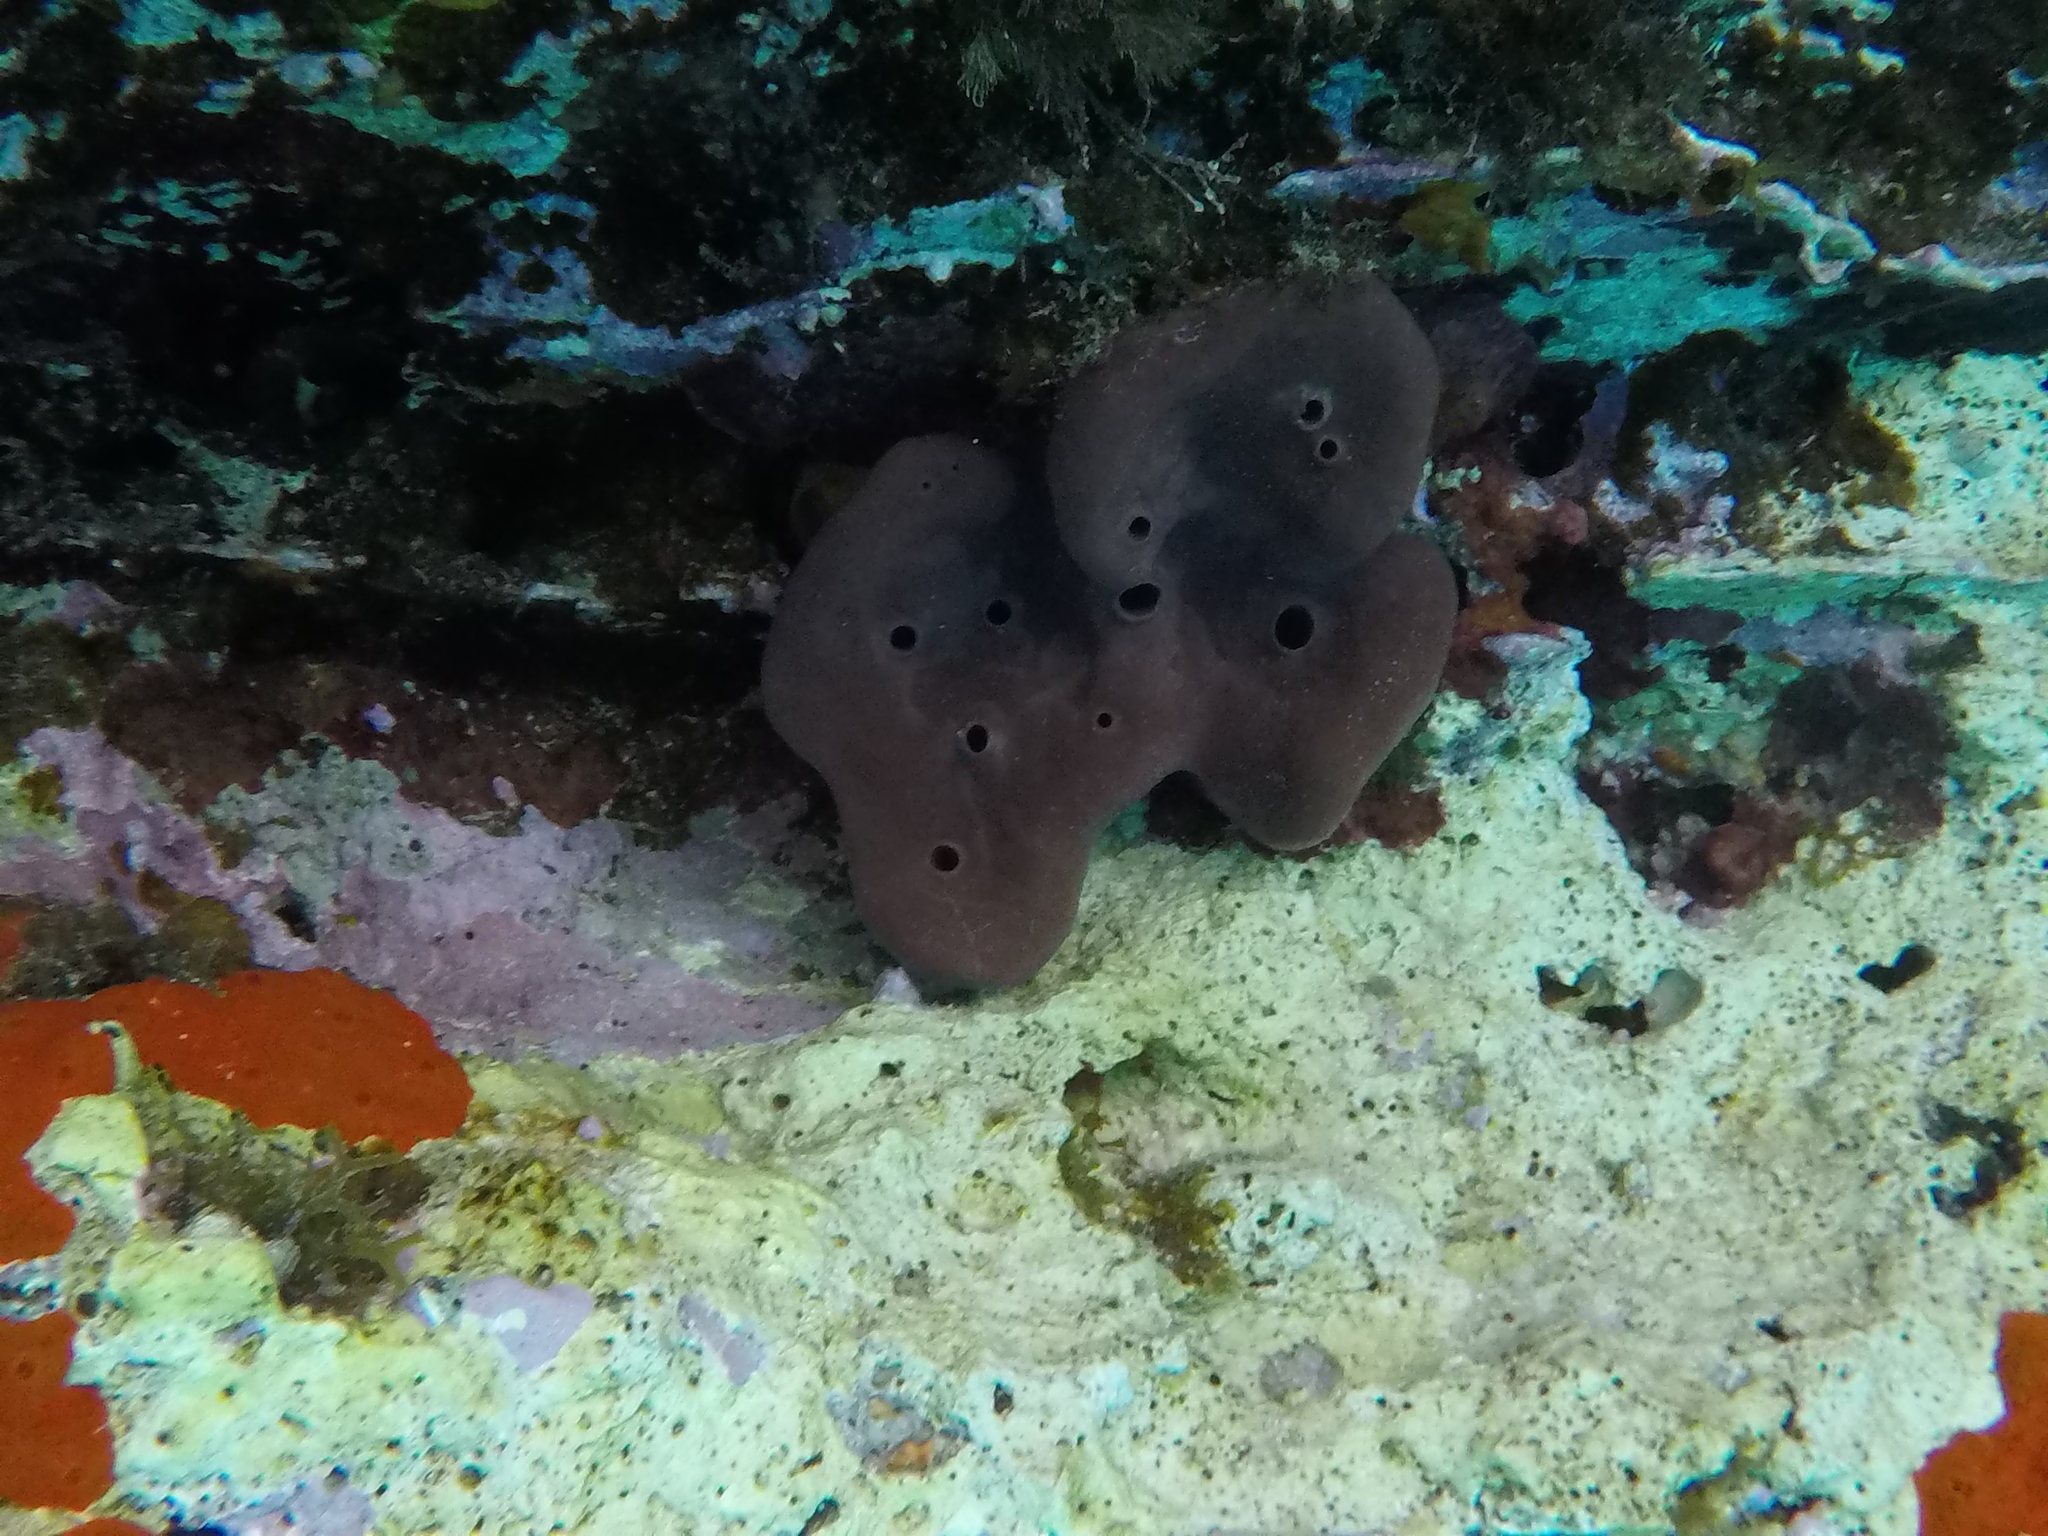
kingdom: Animalia
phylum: Porifera
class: Demospongiae
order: Haplosclerida
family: Petrosiidae
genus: Petrosia
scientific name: Petrosia ficiformis
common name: Stony sponge
